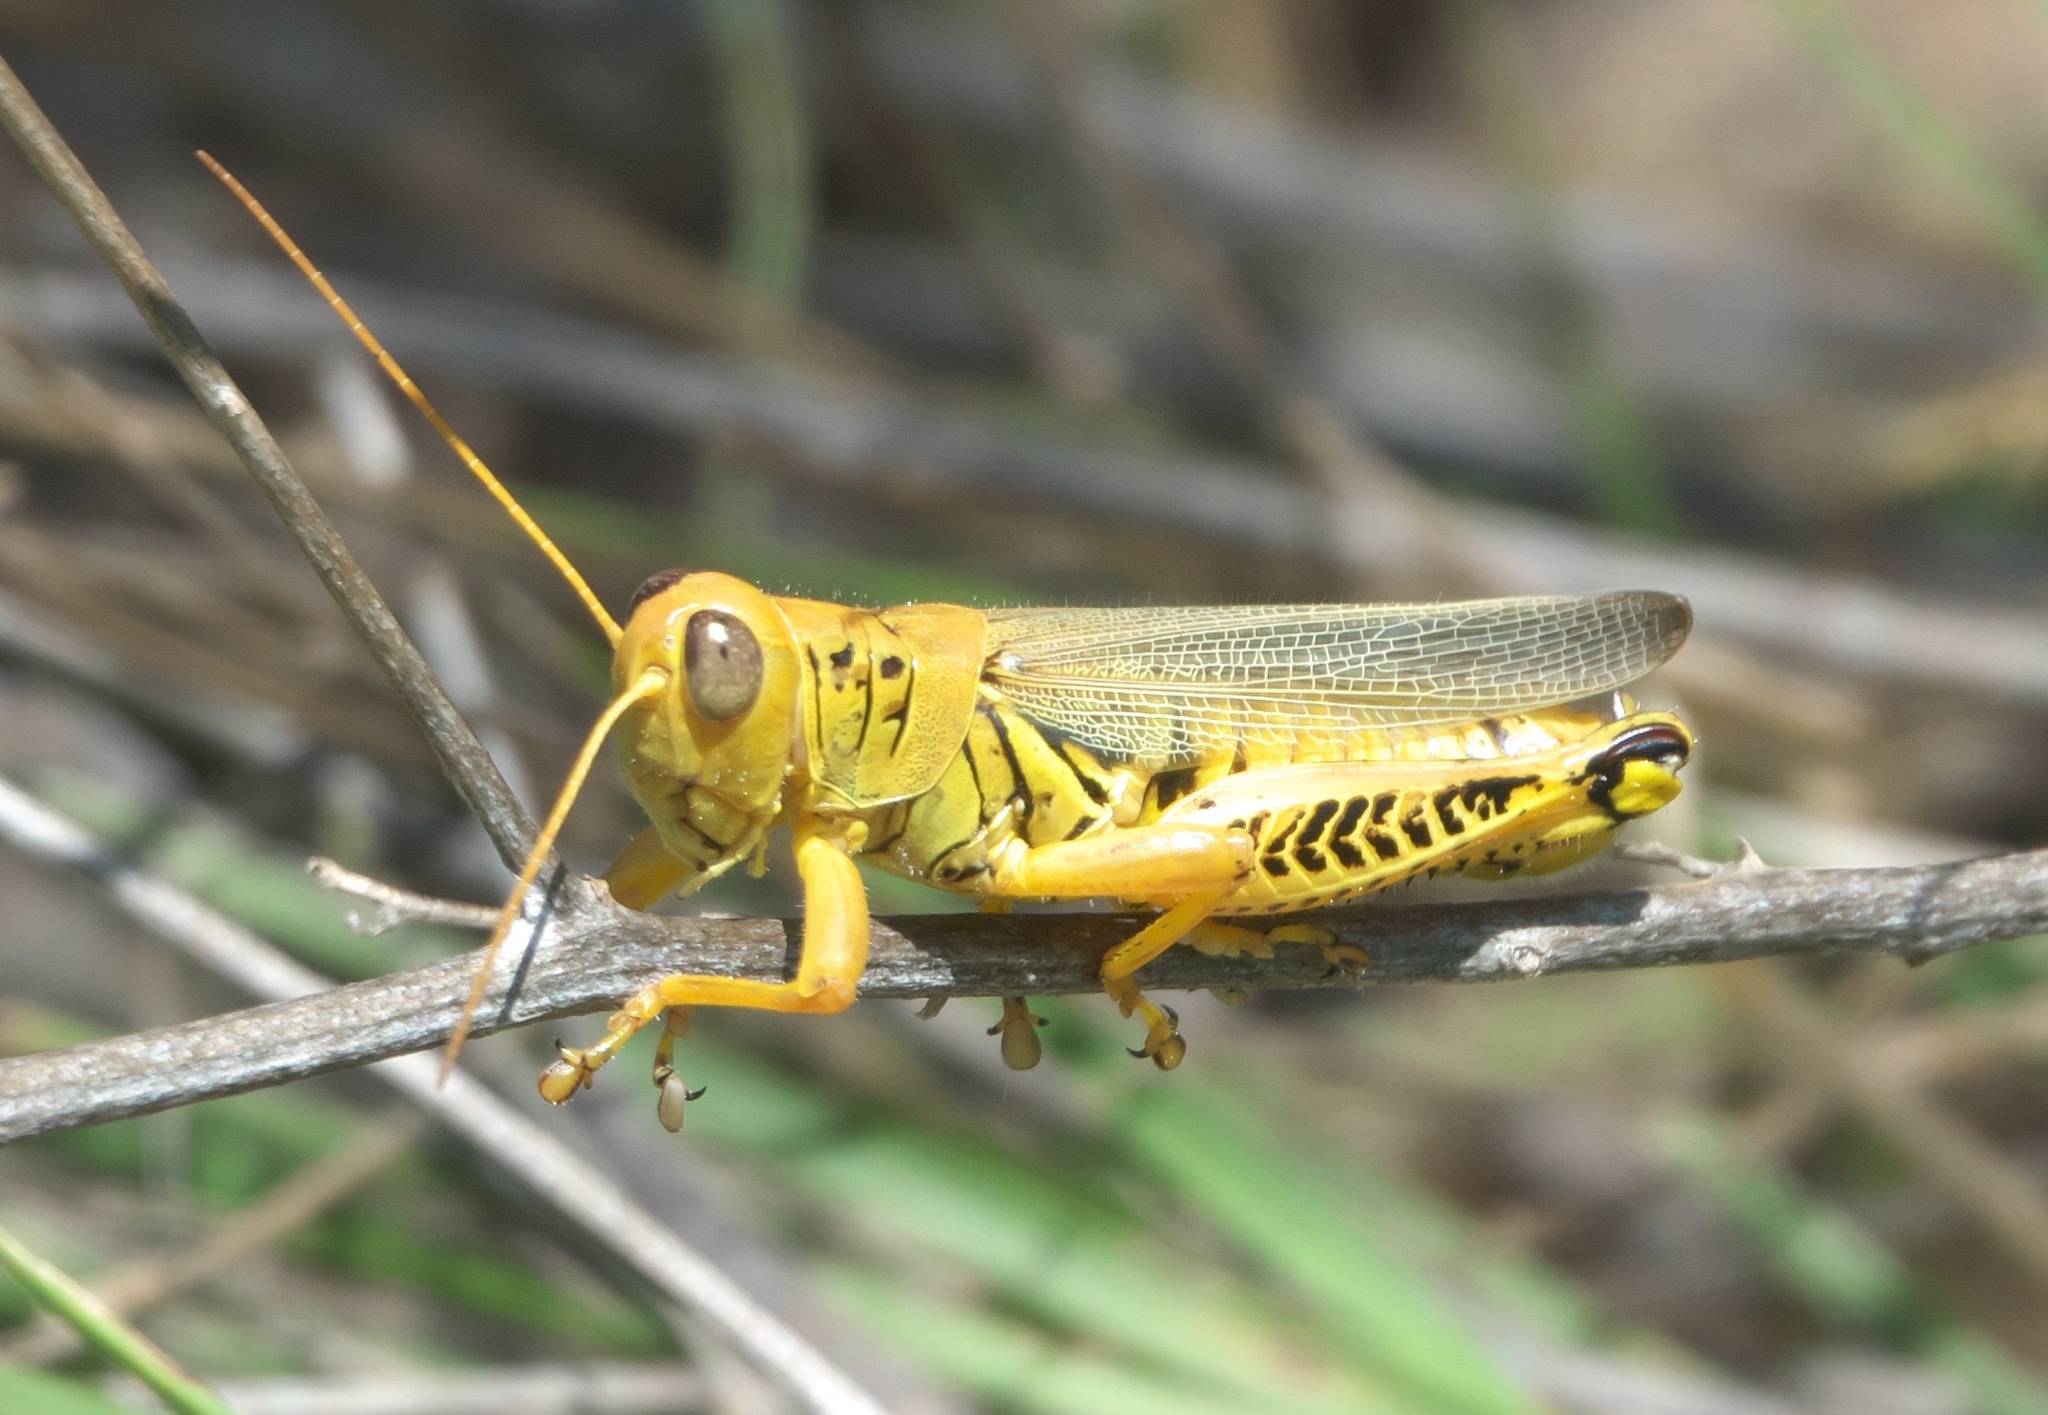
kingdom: Animalia
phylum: Arthropoda
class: Insecta
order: Orthoptera
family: Acrididae
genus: Melanoplus
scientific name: Melanoplus differentialis
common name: Differential grasshopper
